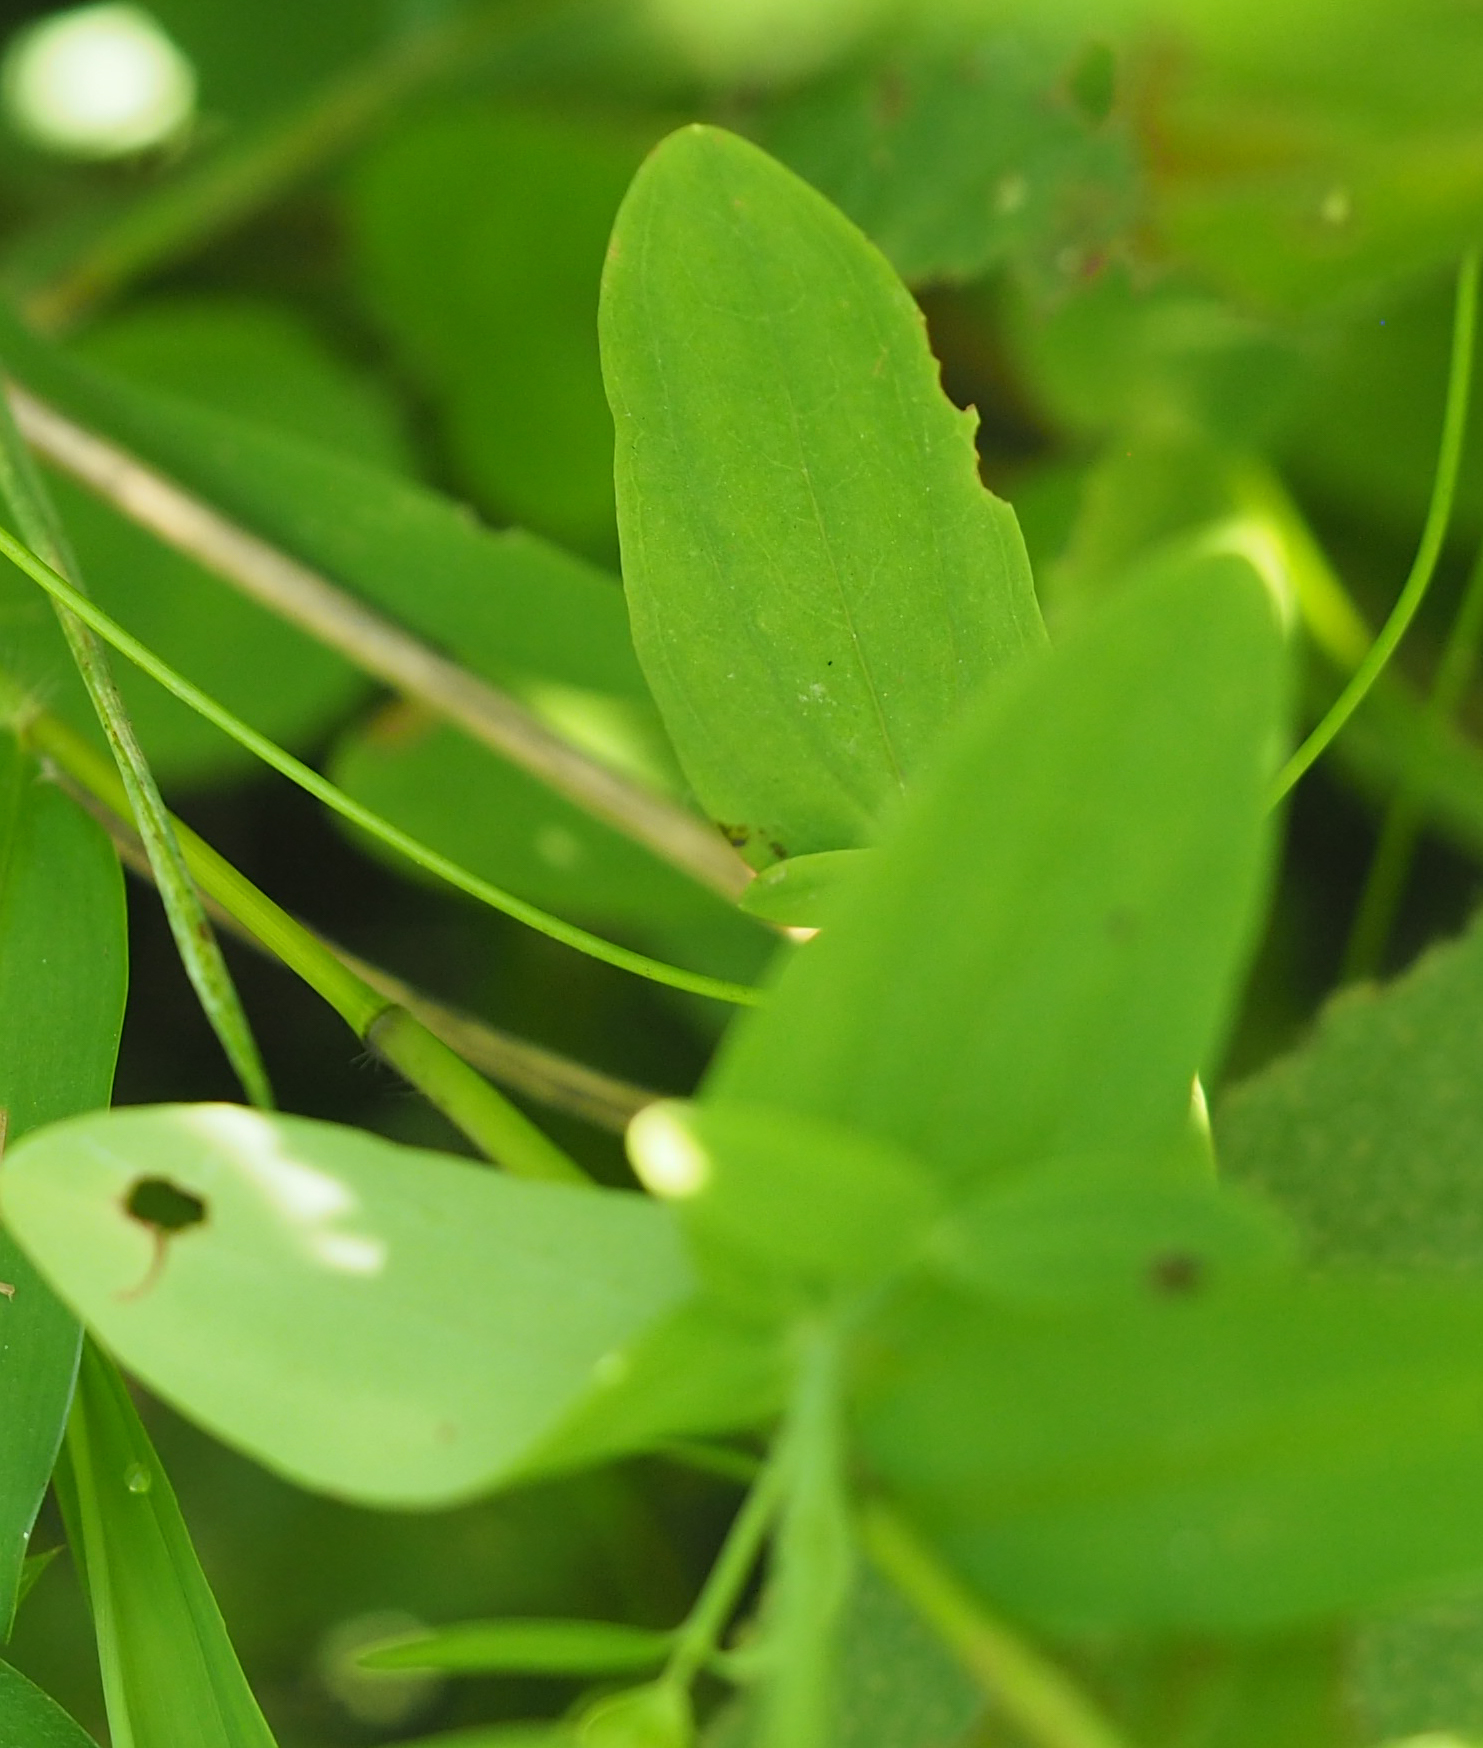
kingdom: Plantae
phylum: Tracheophyta
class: Magnoliopsida
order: Ericales
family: Primulaceae
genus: Lysimachia
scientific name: Lysimachia arvensis
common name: Scarlet pimpernel
